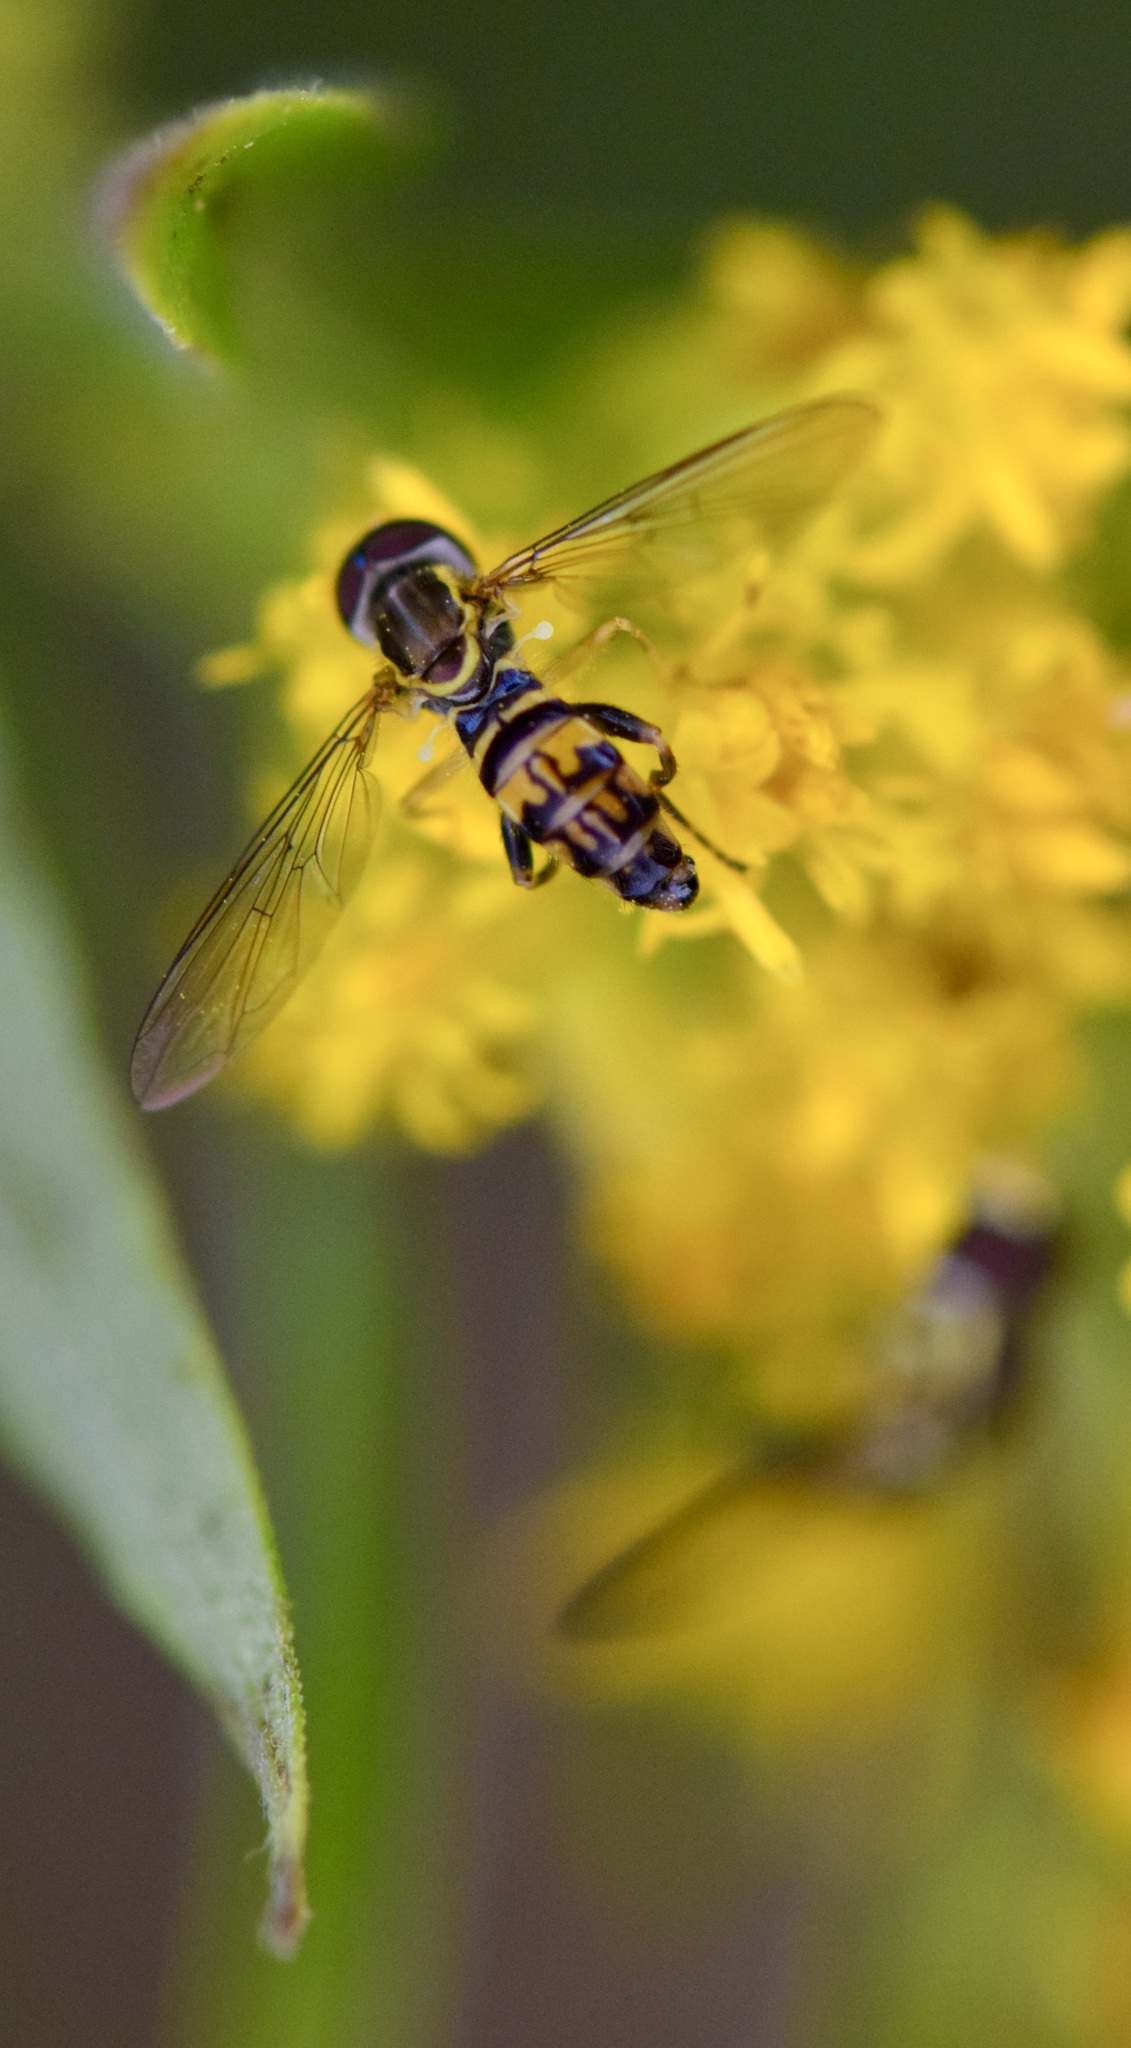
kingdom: Animalia
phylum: Arthropoda
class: Insecta
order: Diptera
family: Syrphidae
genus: Toxomerus
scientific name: Toxomerus geminatus
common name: Eastern calligrapher
